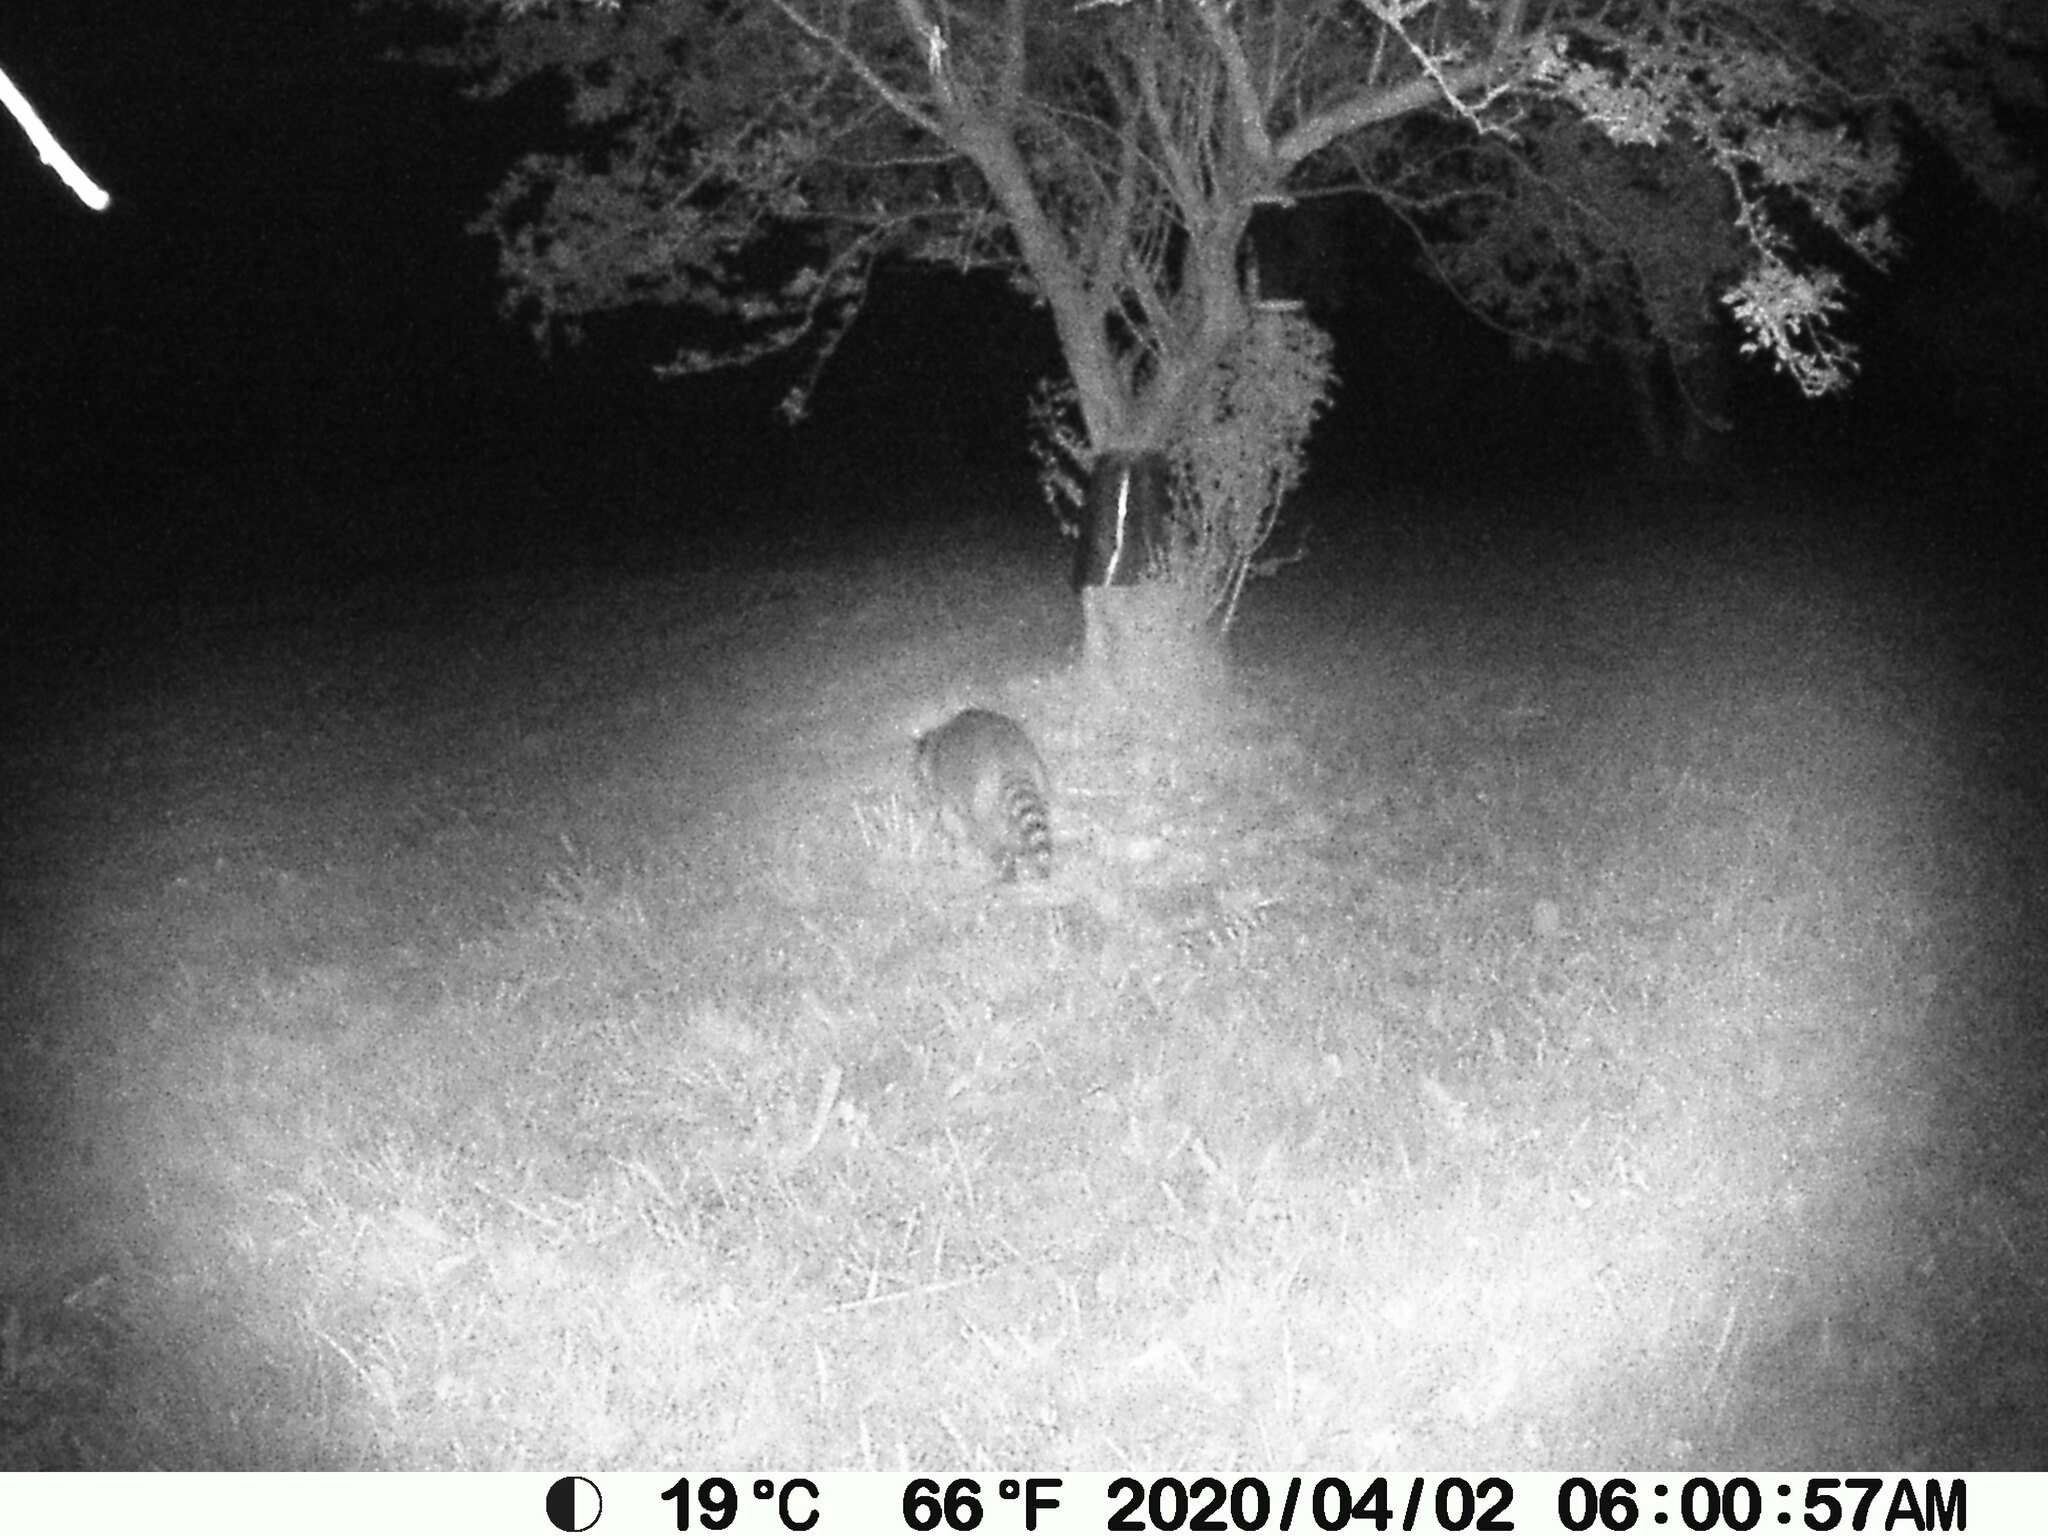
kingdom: Animalia
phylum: Chordata
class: Mammalia
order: Carnivora
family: Procyonidae
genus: Procyon
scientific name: Procyon lotor
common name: Raccoon
